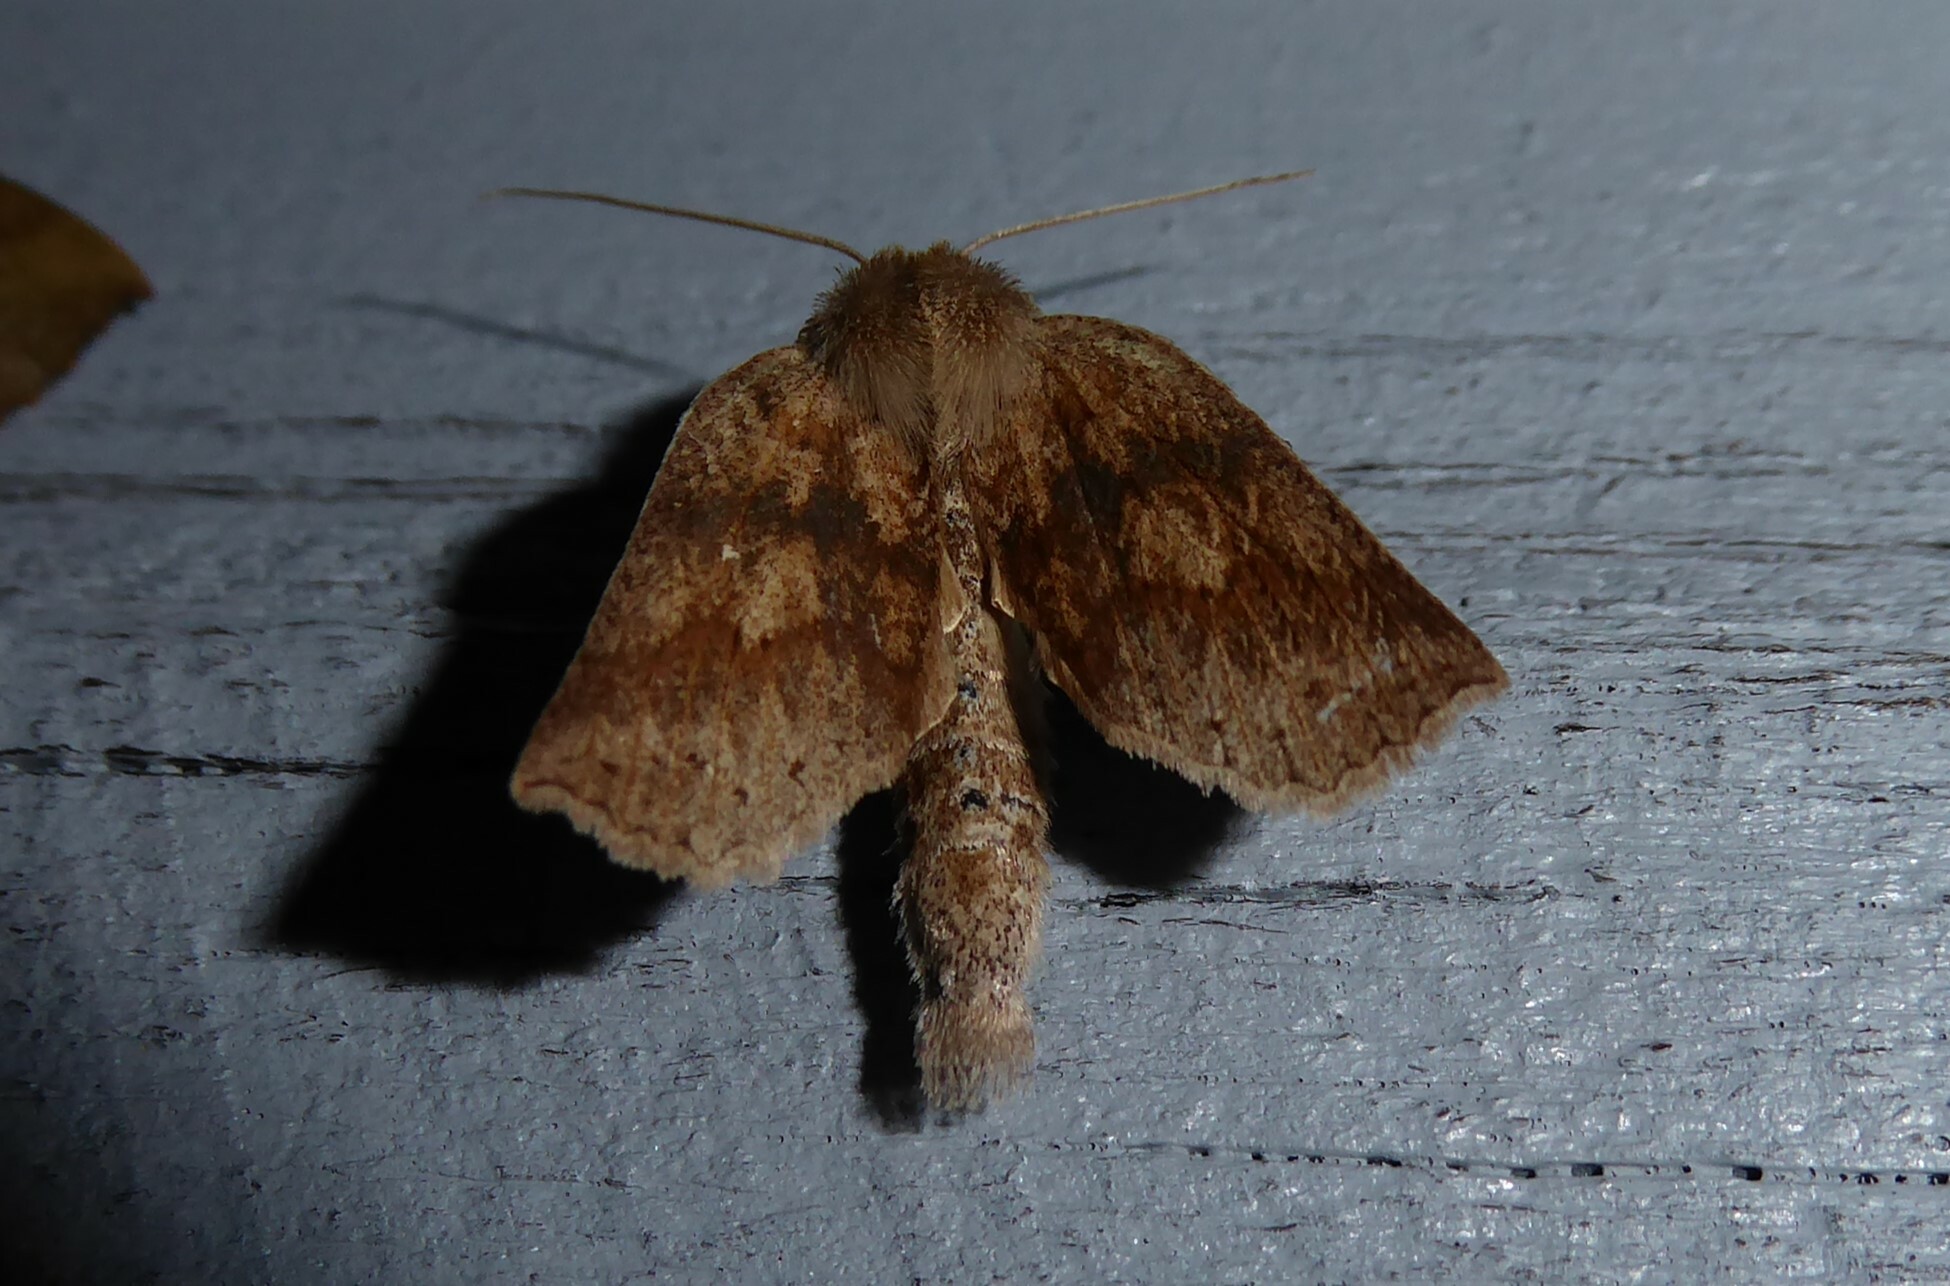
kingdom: Animalia
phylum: Arthropoda
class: Insecta
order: Lepidoptera
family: Geometridae
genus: Declana
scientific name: Declana leptomera
